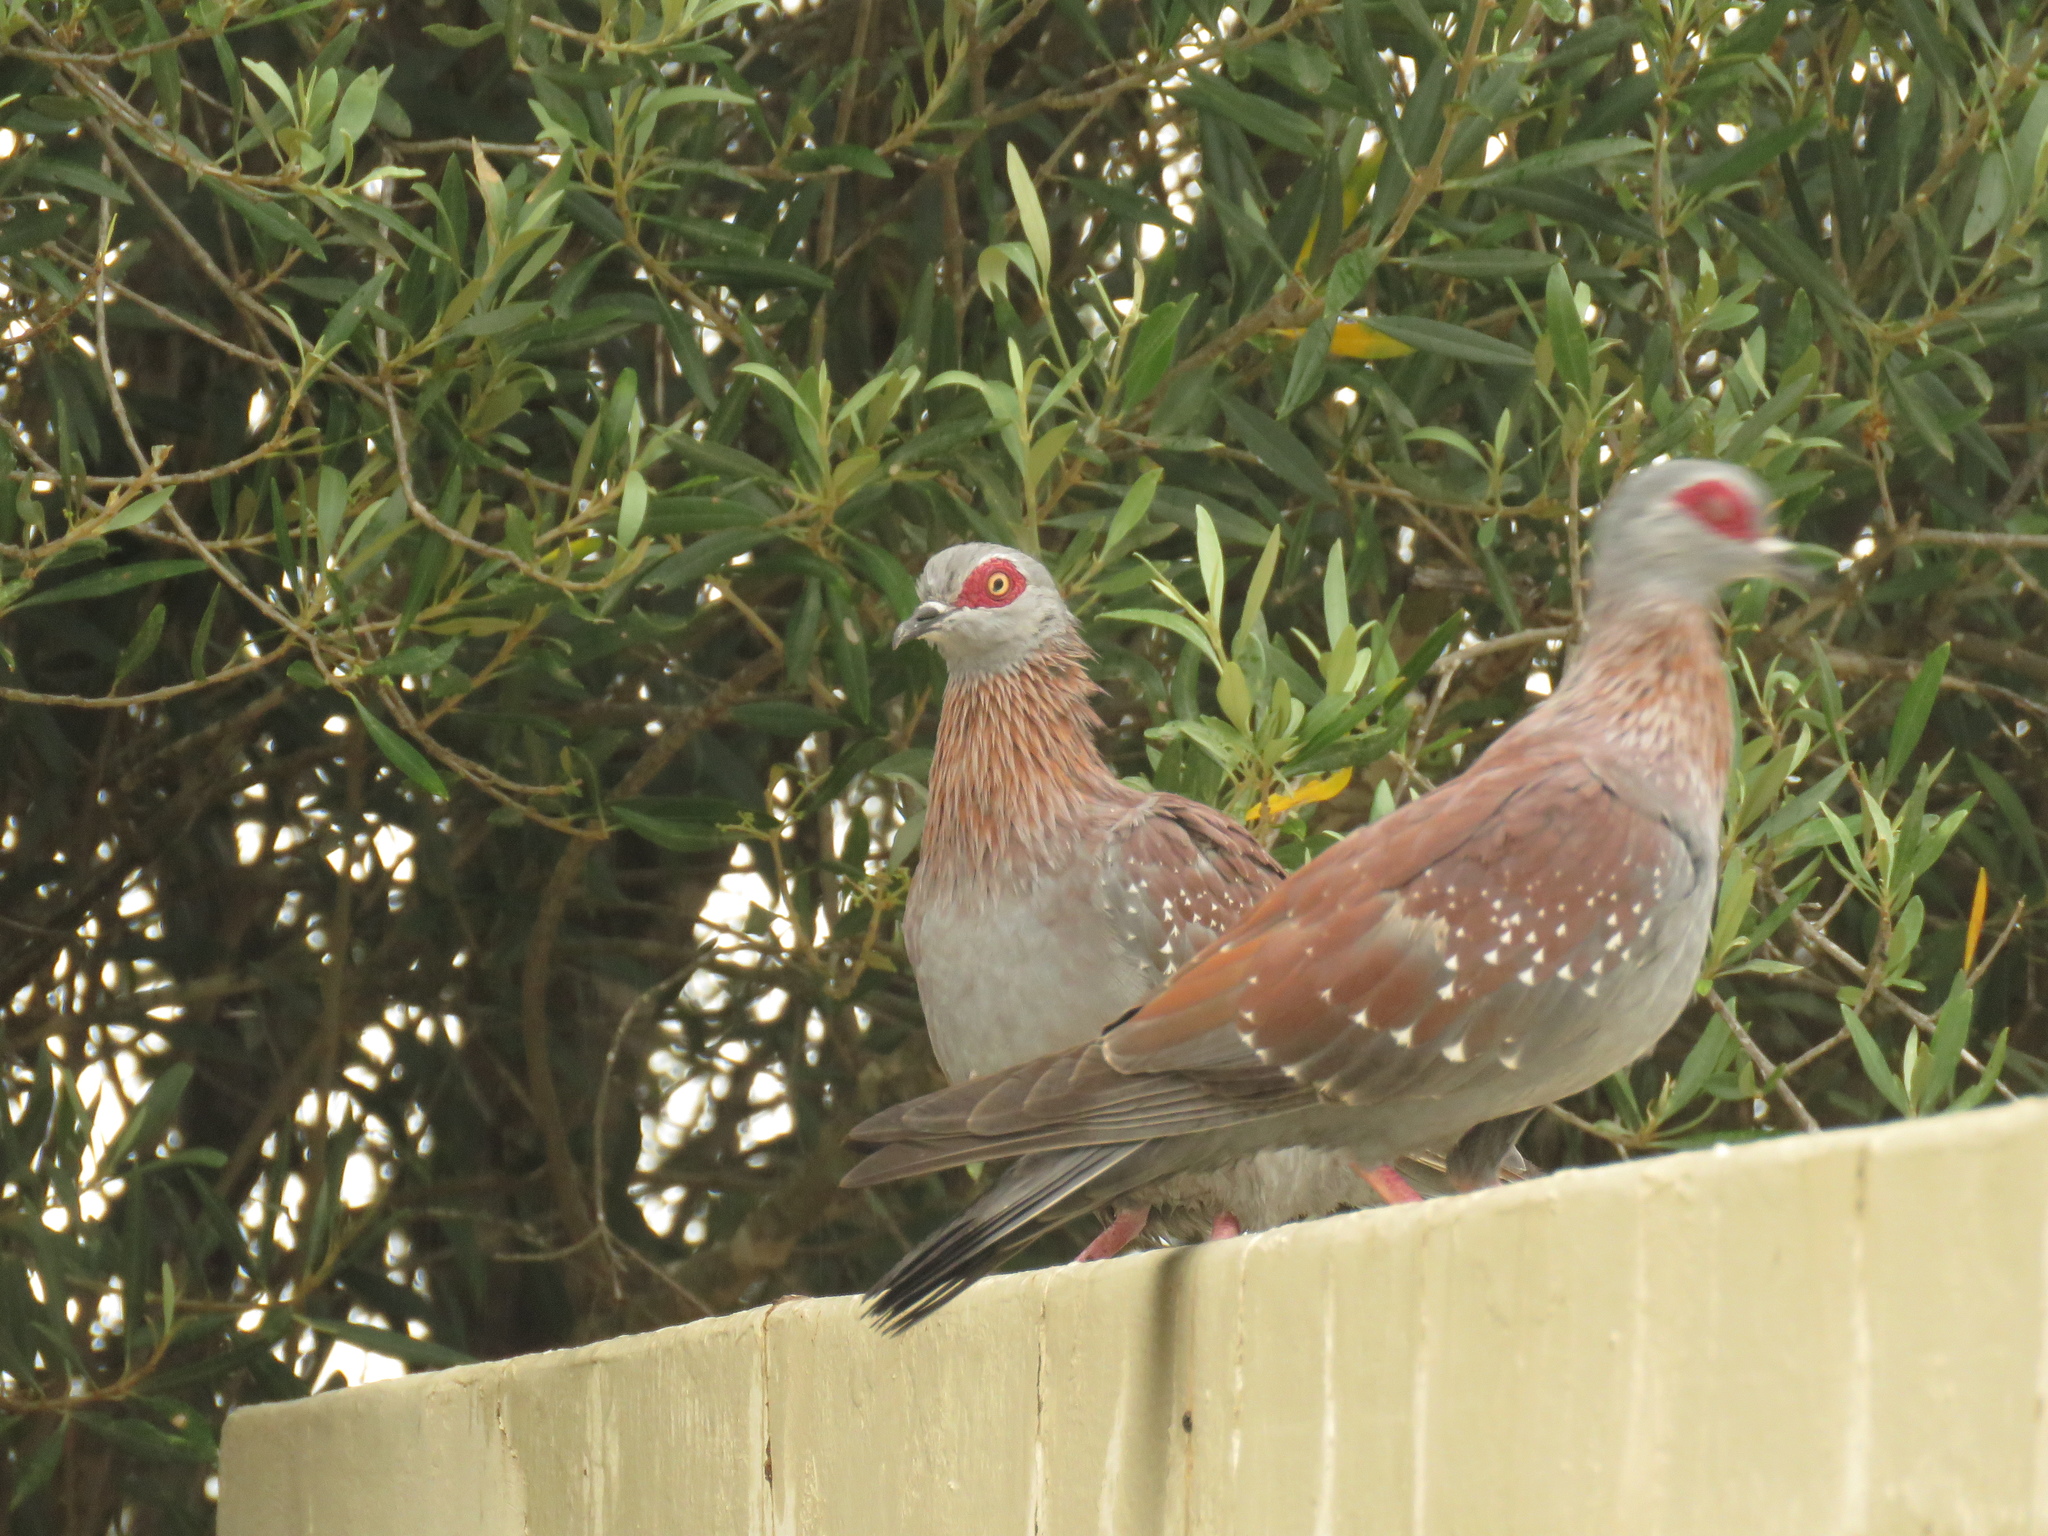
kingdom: Animalia
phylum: Chordata
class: Aves
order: Columbiformes
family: Columbidae
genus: Columba
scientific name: Columba guinea
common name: Speckled pigeon
